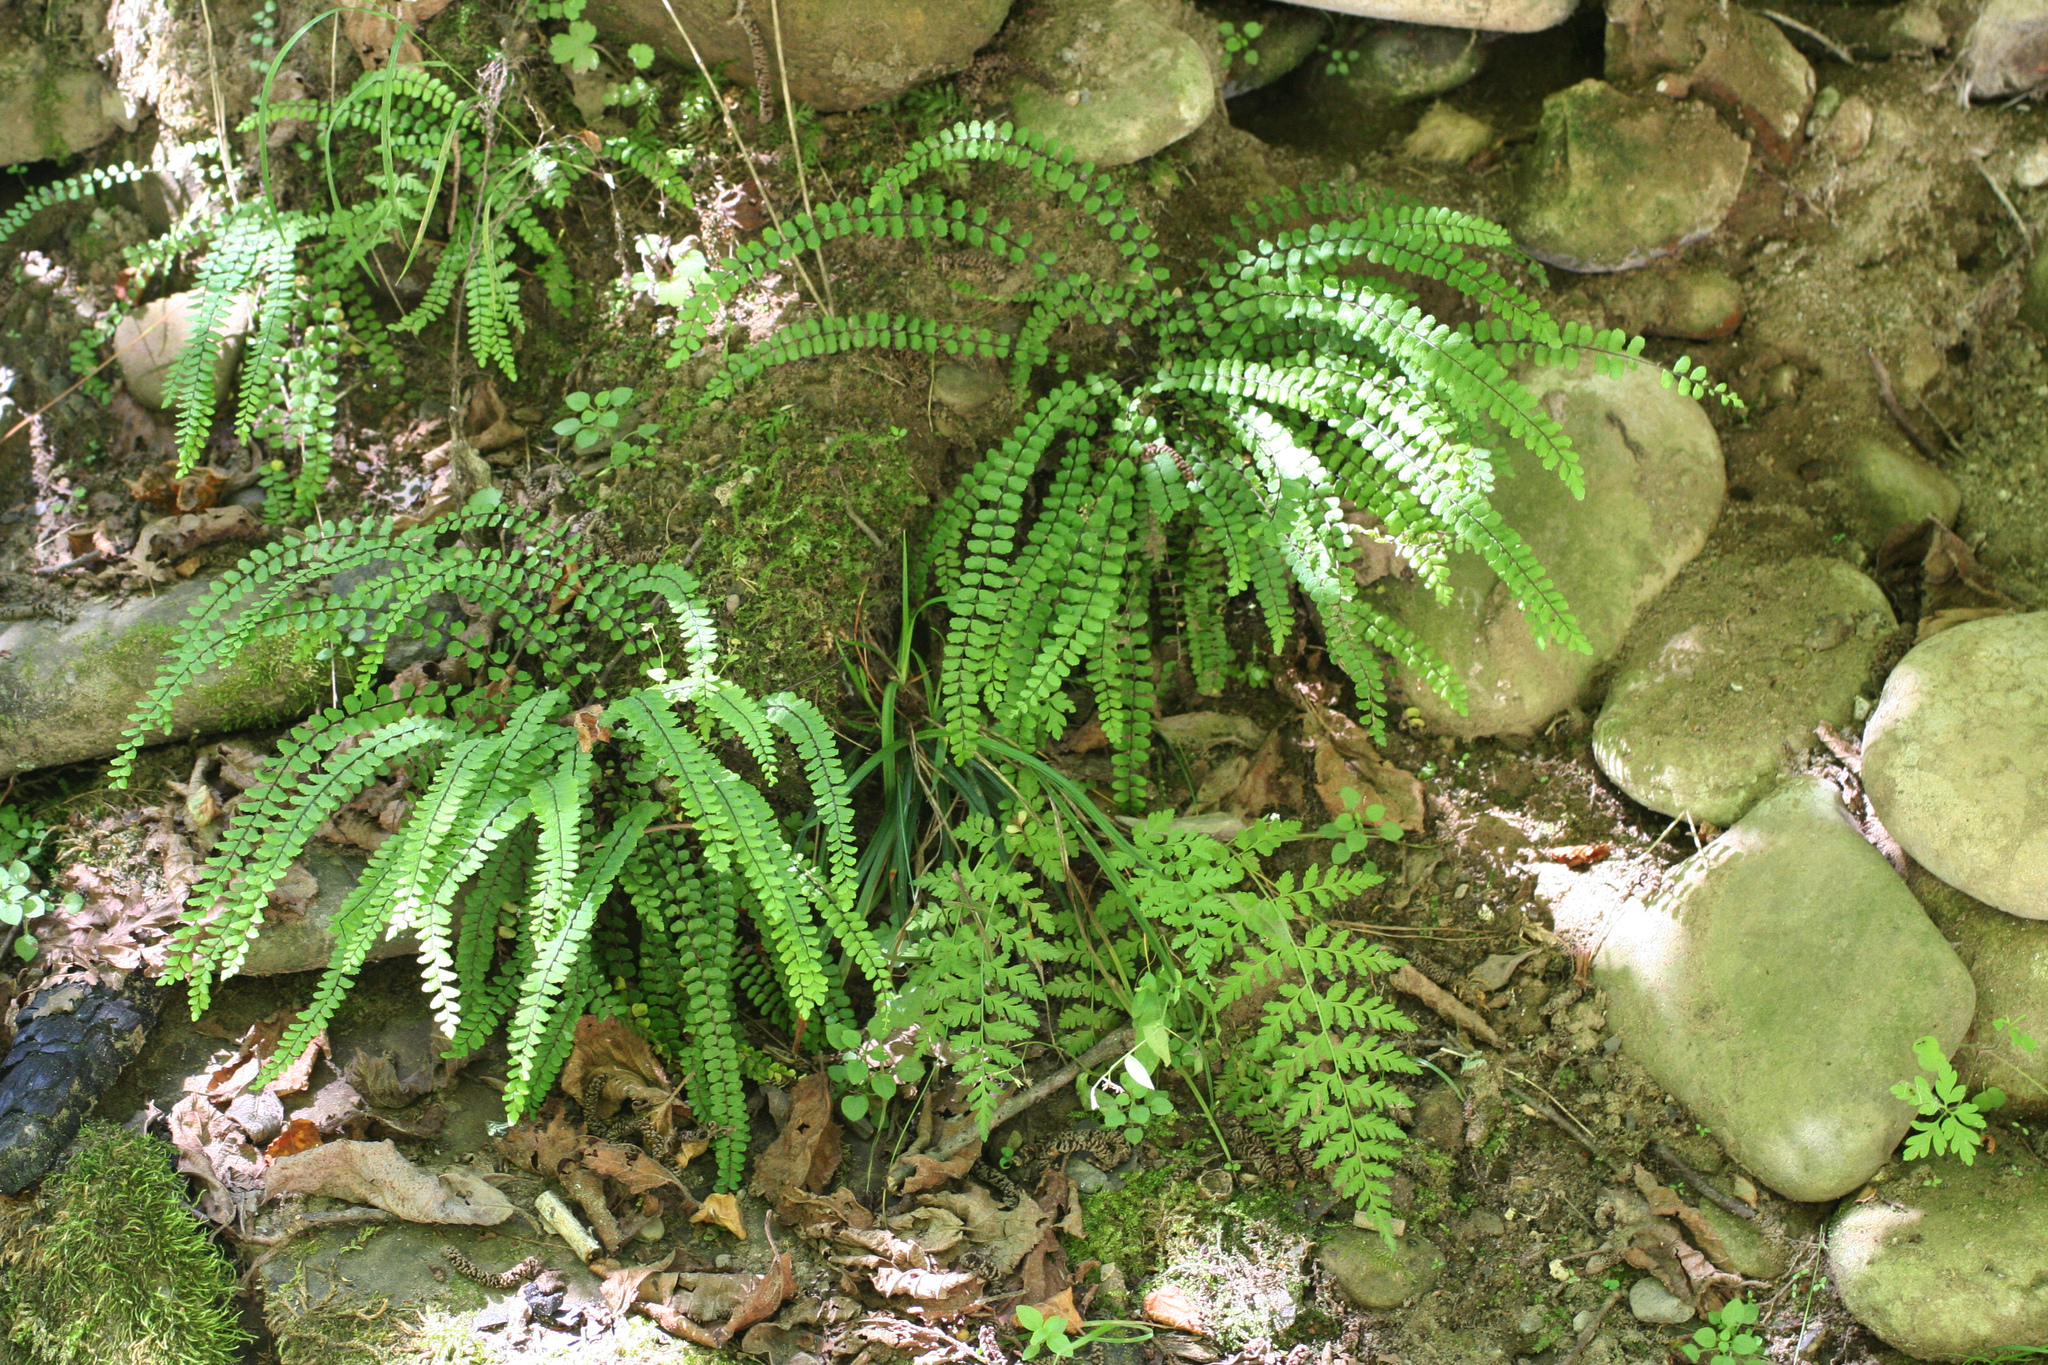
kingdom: Plantae
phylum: Tracheophyta
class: Polypodiopsida
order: Polypodiales
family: Aspleniaceae
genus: Asplenium
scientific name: Asplenium trichomanes
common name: Maidenhair spleenwort
